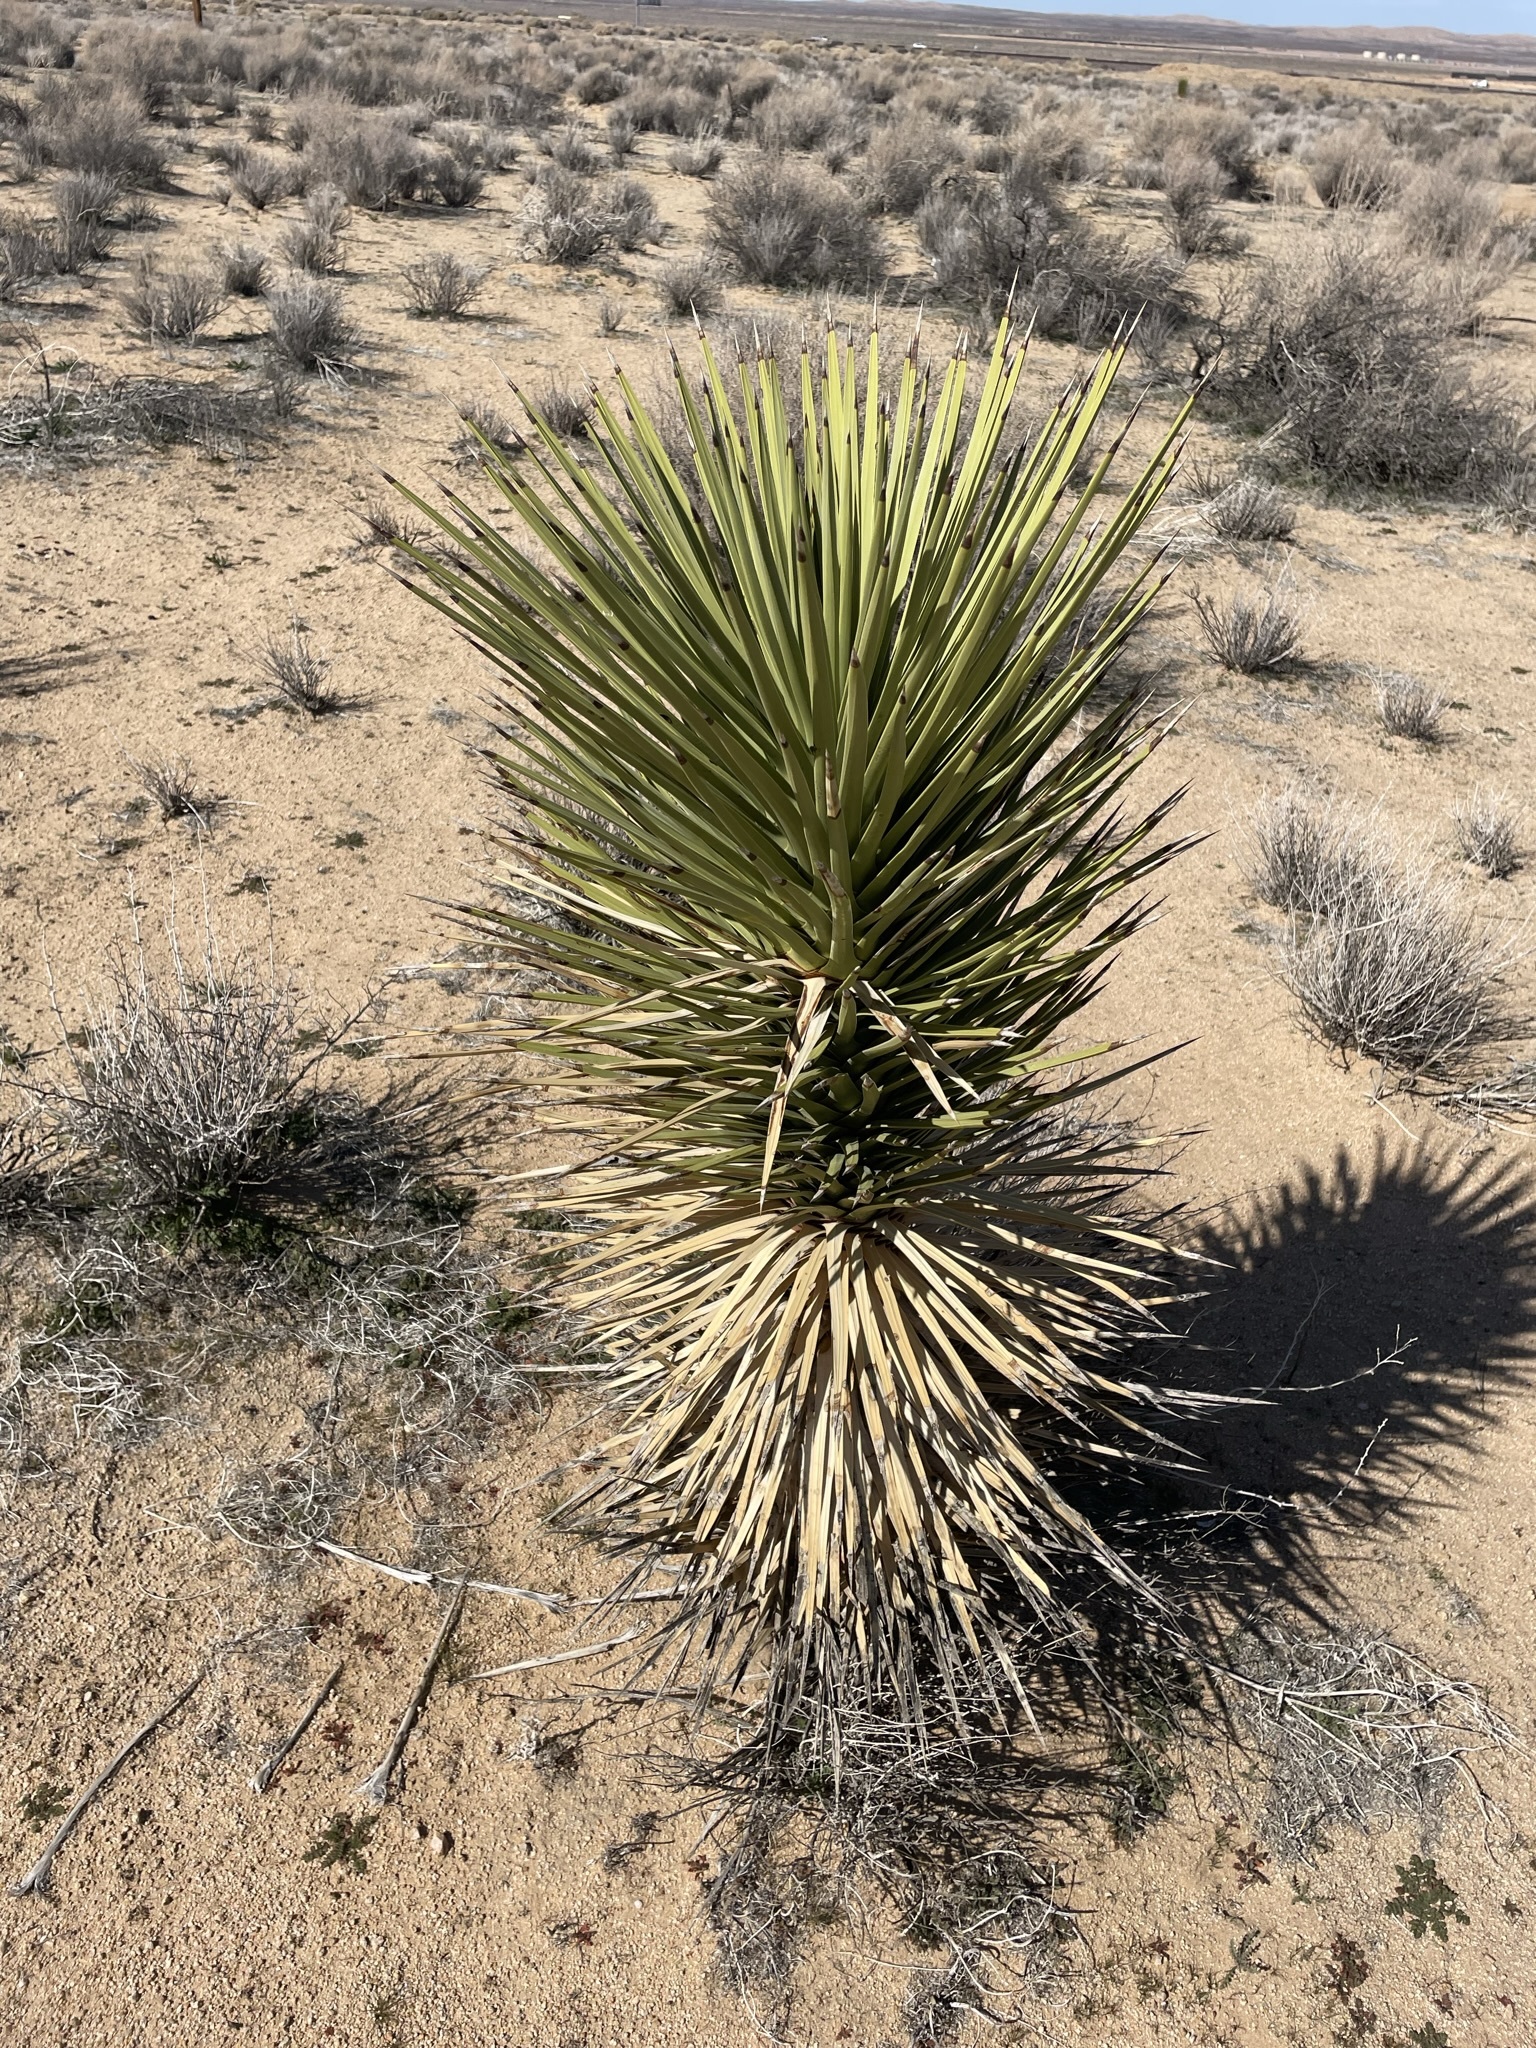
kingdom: Plantae
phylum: Tracheophyta
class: Liliopsida
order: Asparagales
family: Asparagaceae
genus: Yucca
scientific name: Yucca brevifolia
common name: Joshua tree
